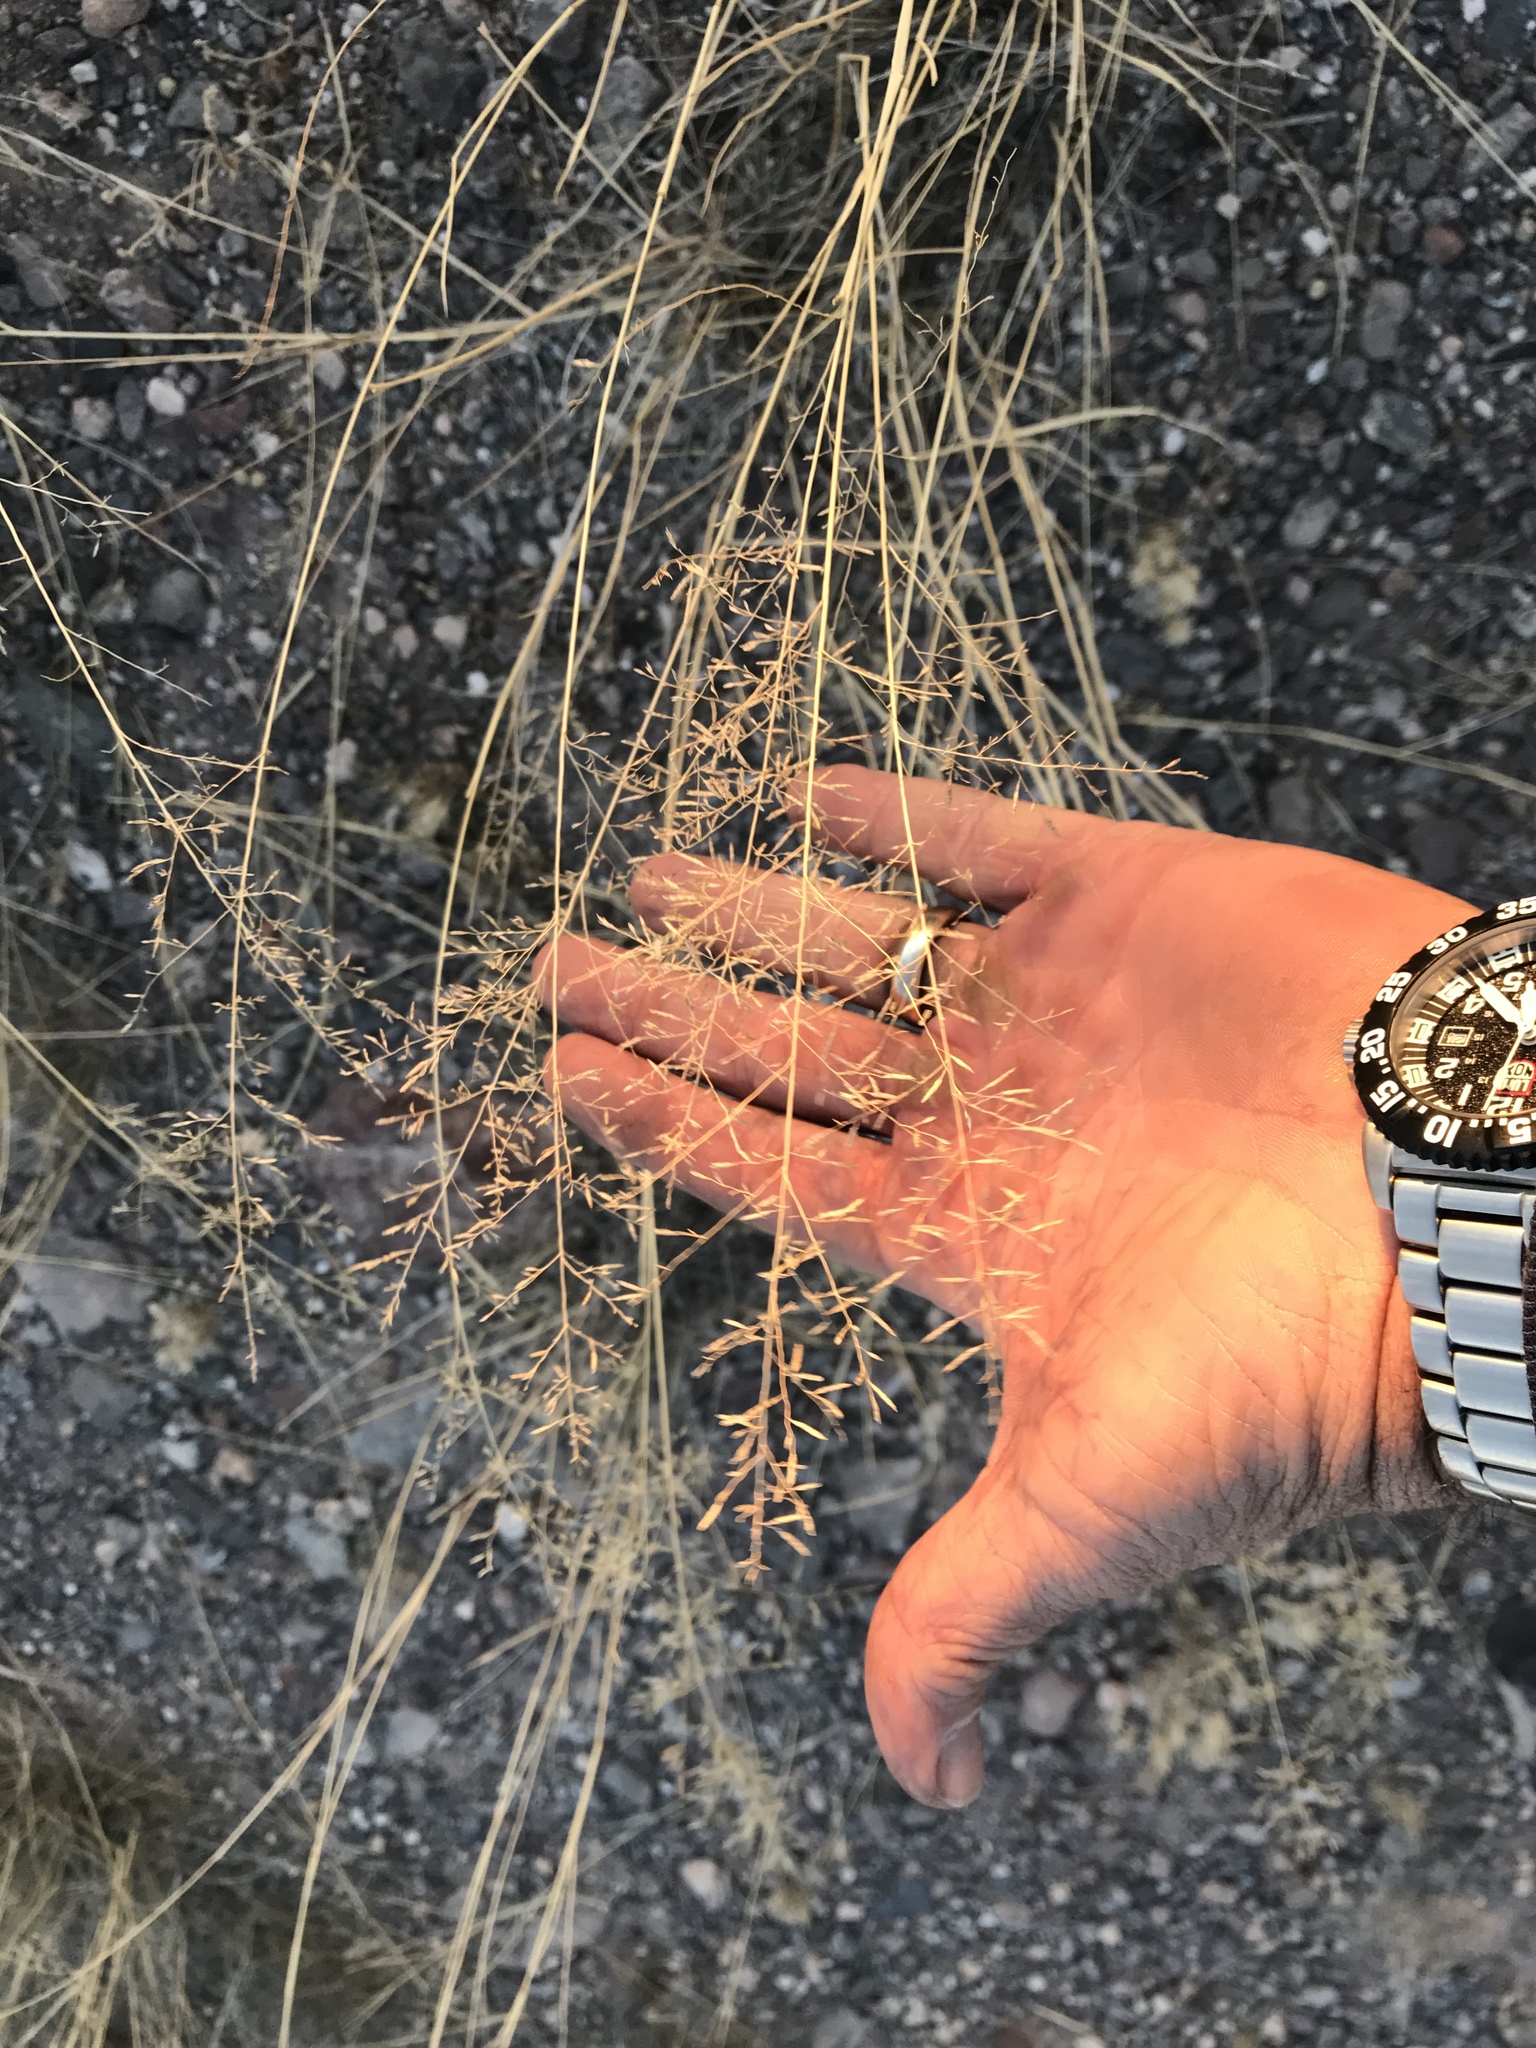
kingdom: Plantae
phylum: Tracheophyta
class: Liliopsida
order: Poales
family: Poaceae
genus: Eragrostis
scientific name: Eragrostis lehmanniana
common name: Lehmann lovegrass
